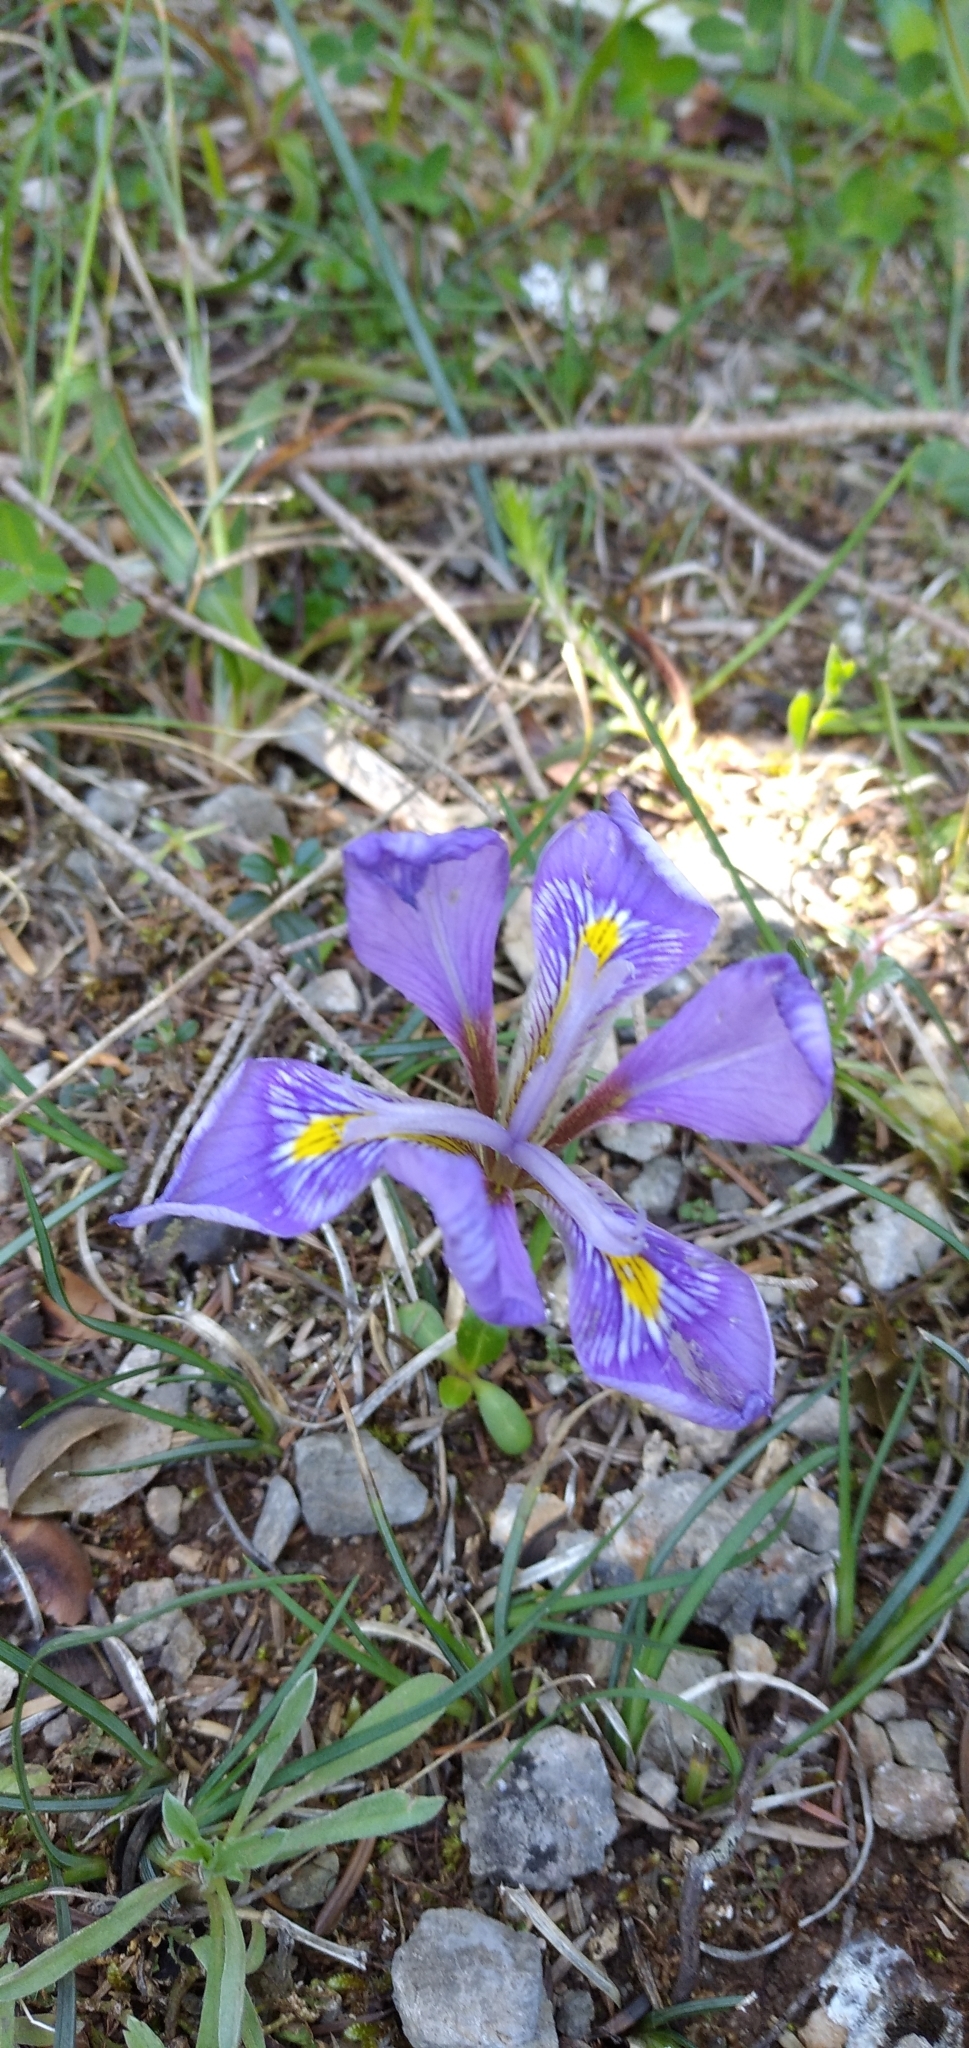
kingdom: Plantae
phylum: Tracheophyta
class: Liliopsida
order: Asparagales
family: Iridaceae
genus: Iris
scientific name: Iris unguicularis
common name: Algerian iris
